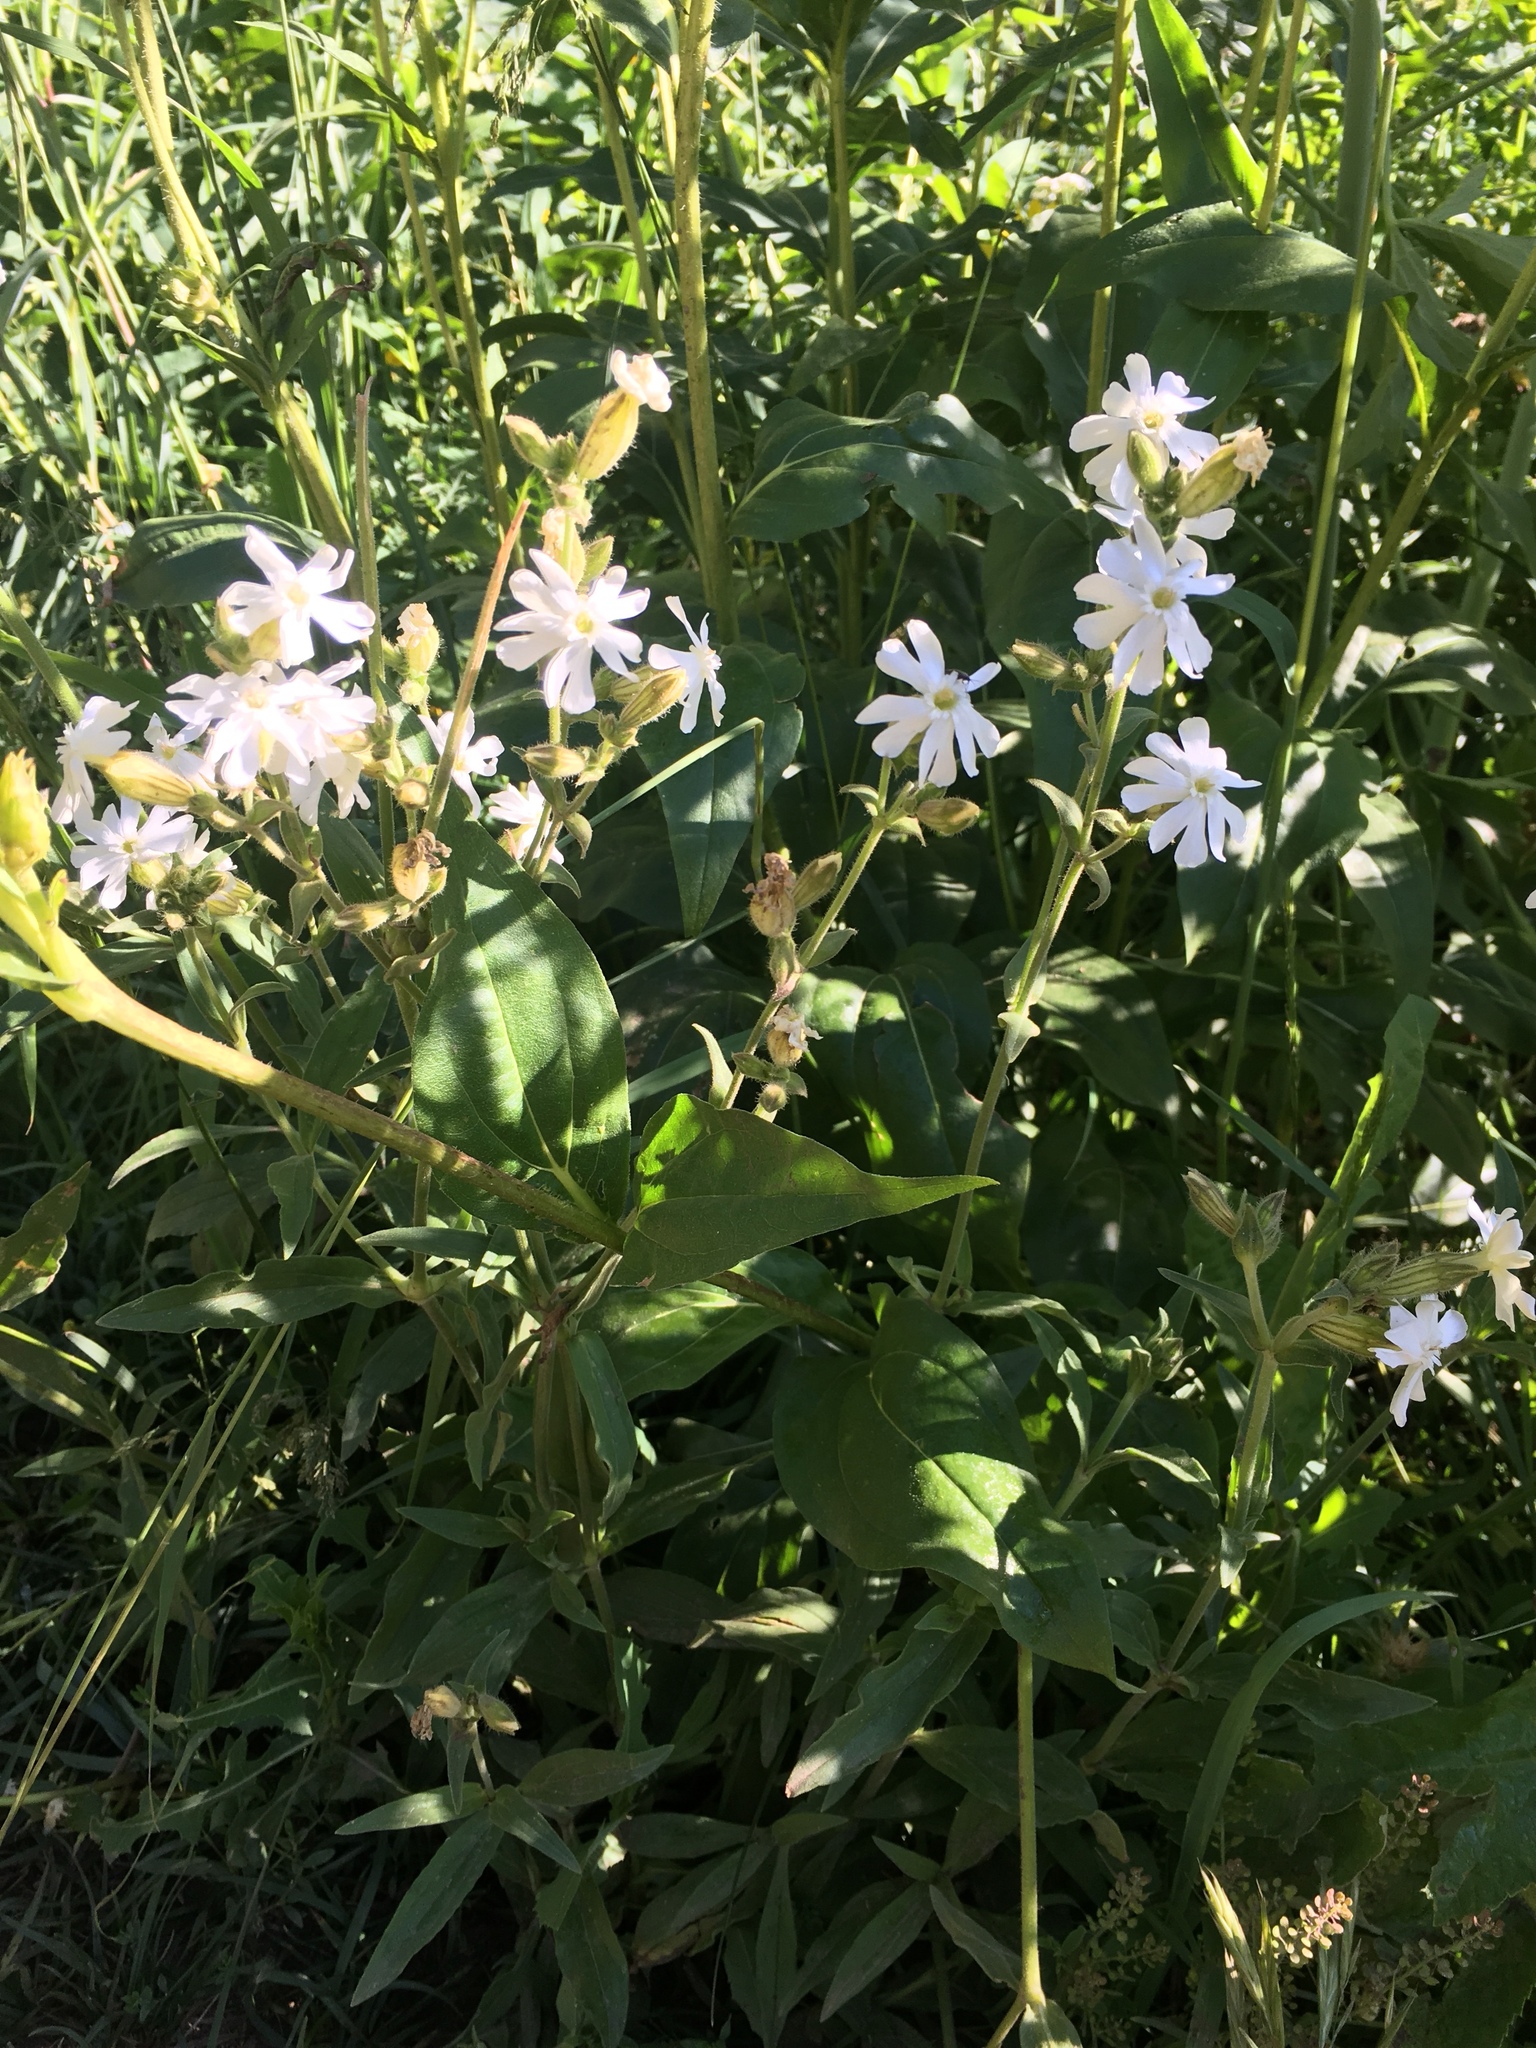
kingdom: Plantae
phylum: Tracheophyta
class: Magnoliopsida
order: Caryophyllales
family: Caryophyllaceae
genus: Silene
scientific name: Silene latifolia
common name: White campion
